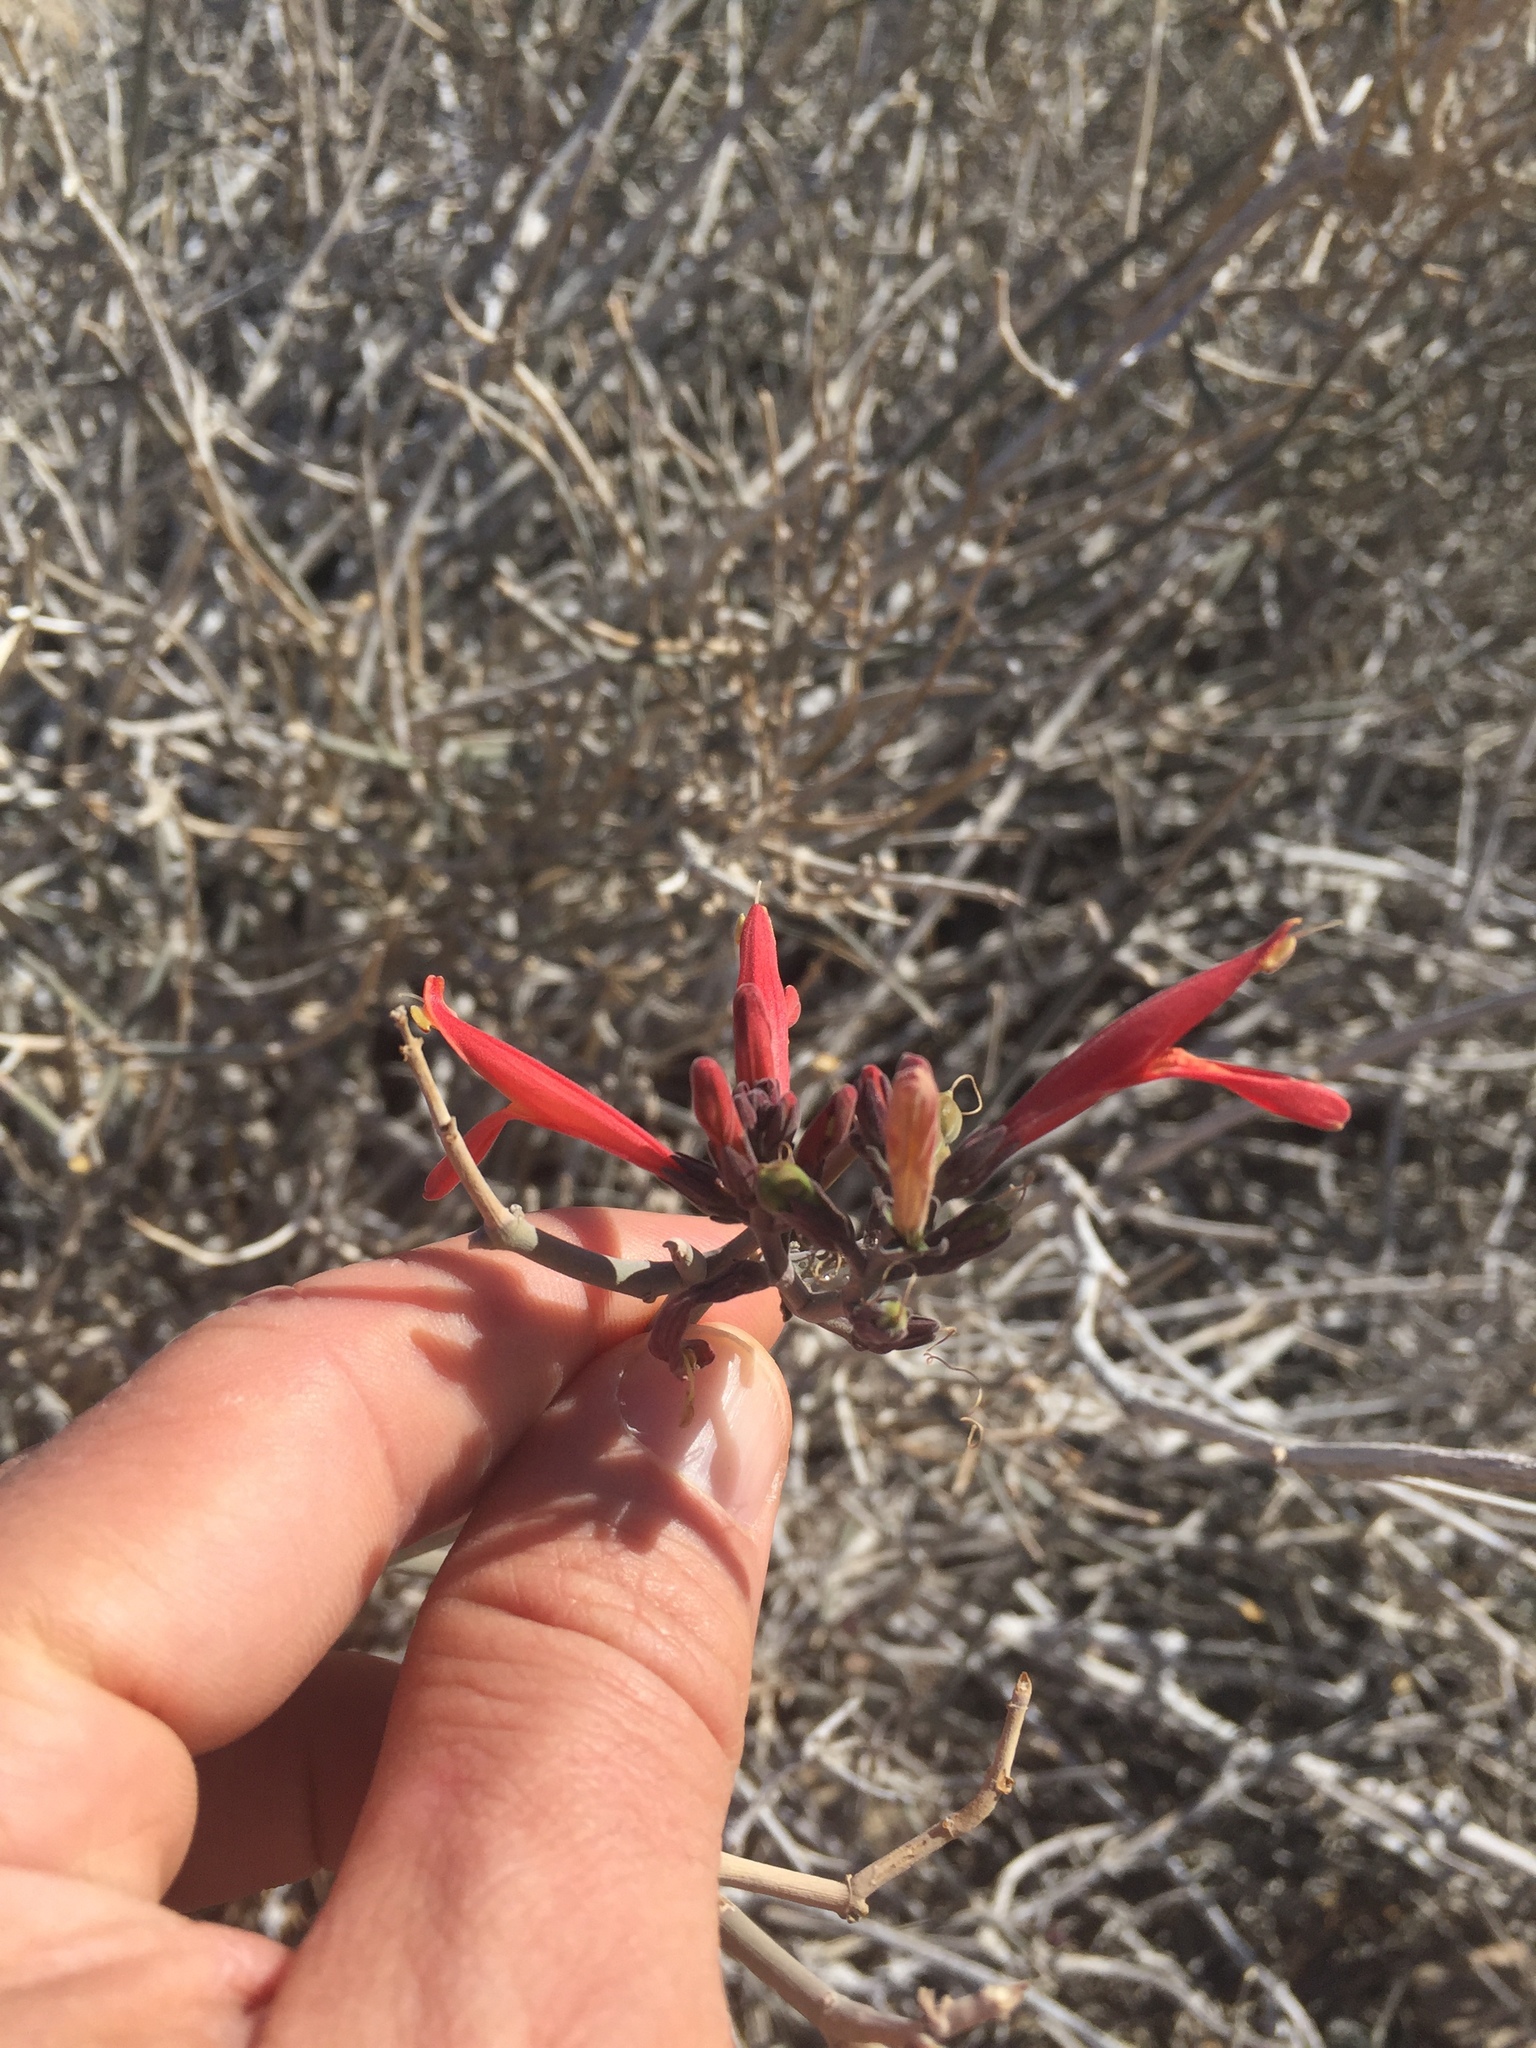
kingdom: Plantae
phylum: Tracheophyta
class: Magnoliopsida
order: Lamiales
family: Acanthaceae
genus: Justicia
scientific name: Justicia californica
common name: Chuparosa-honeysuckle
